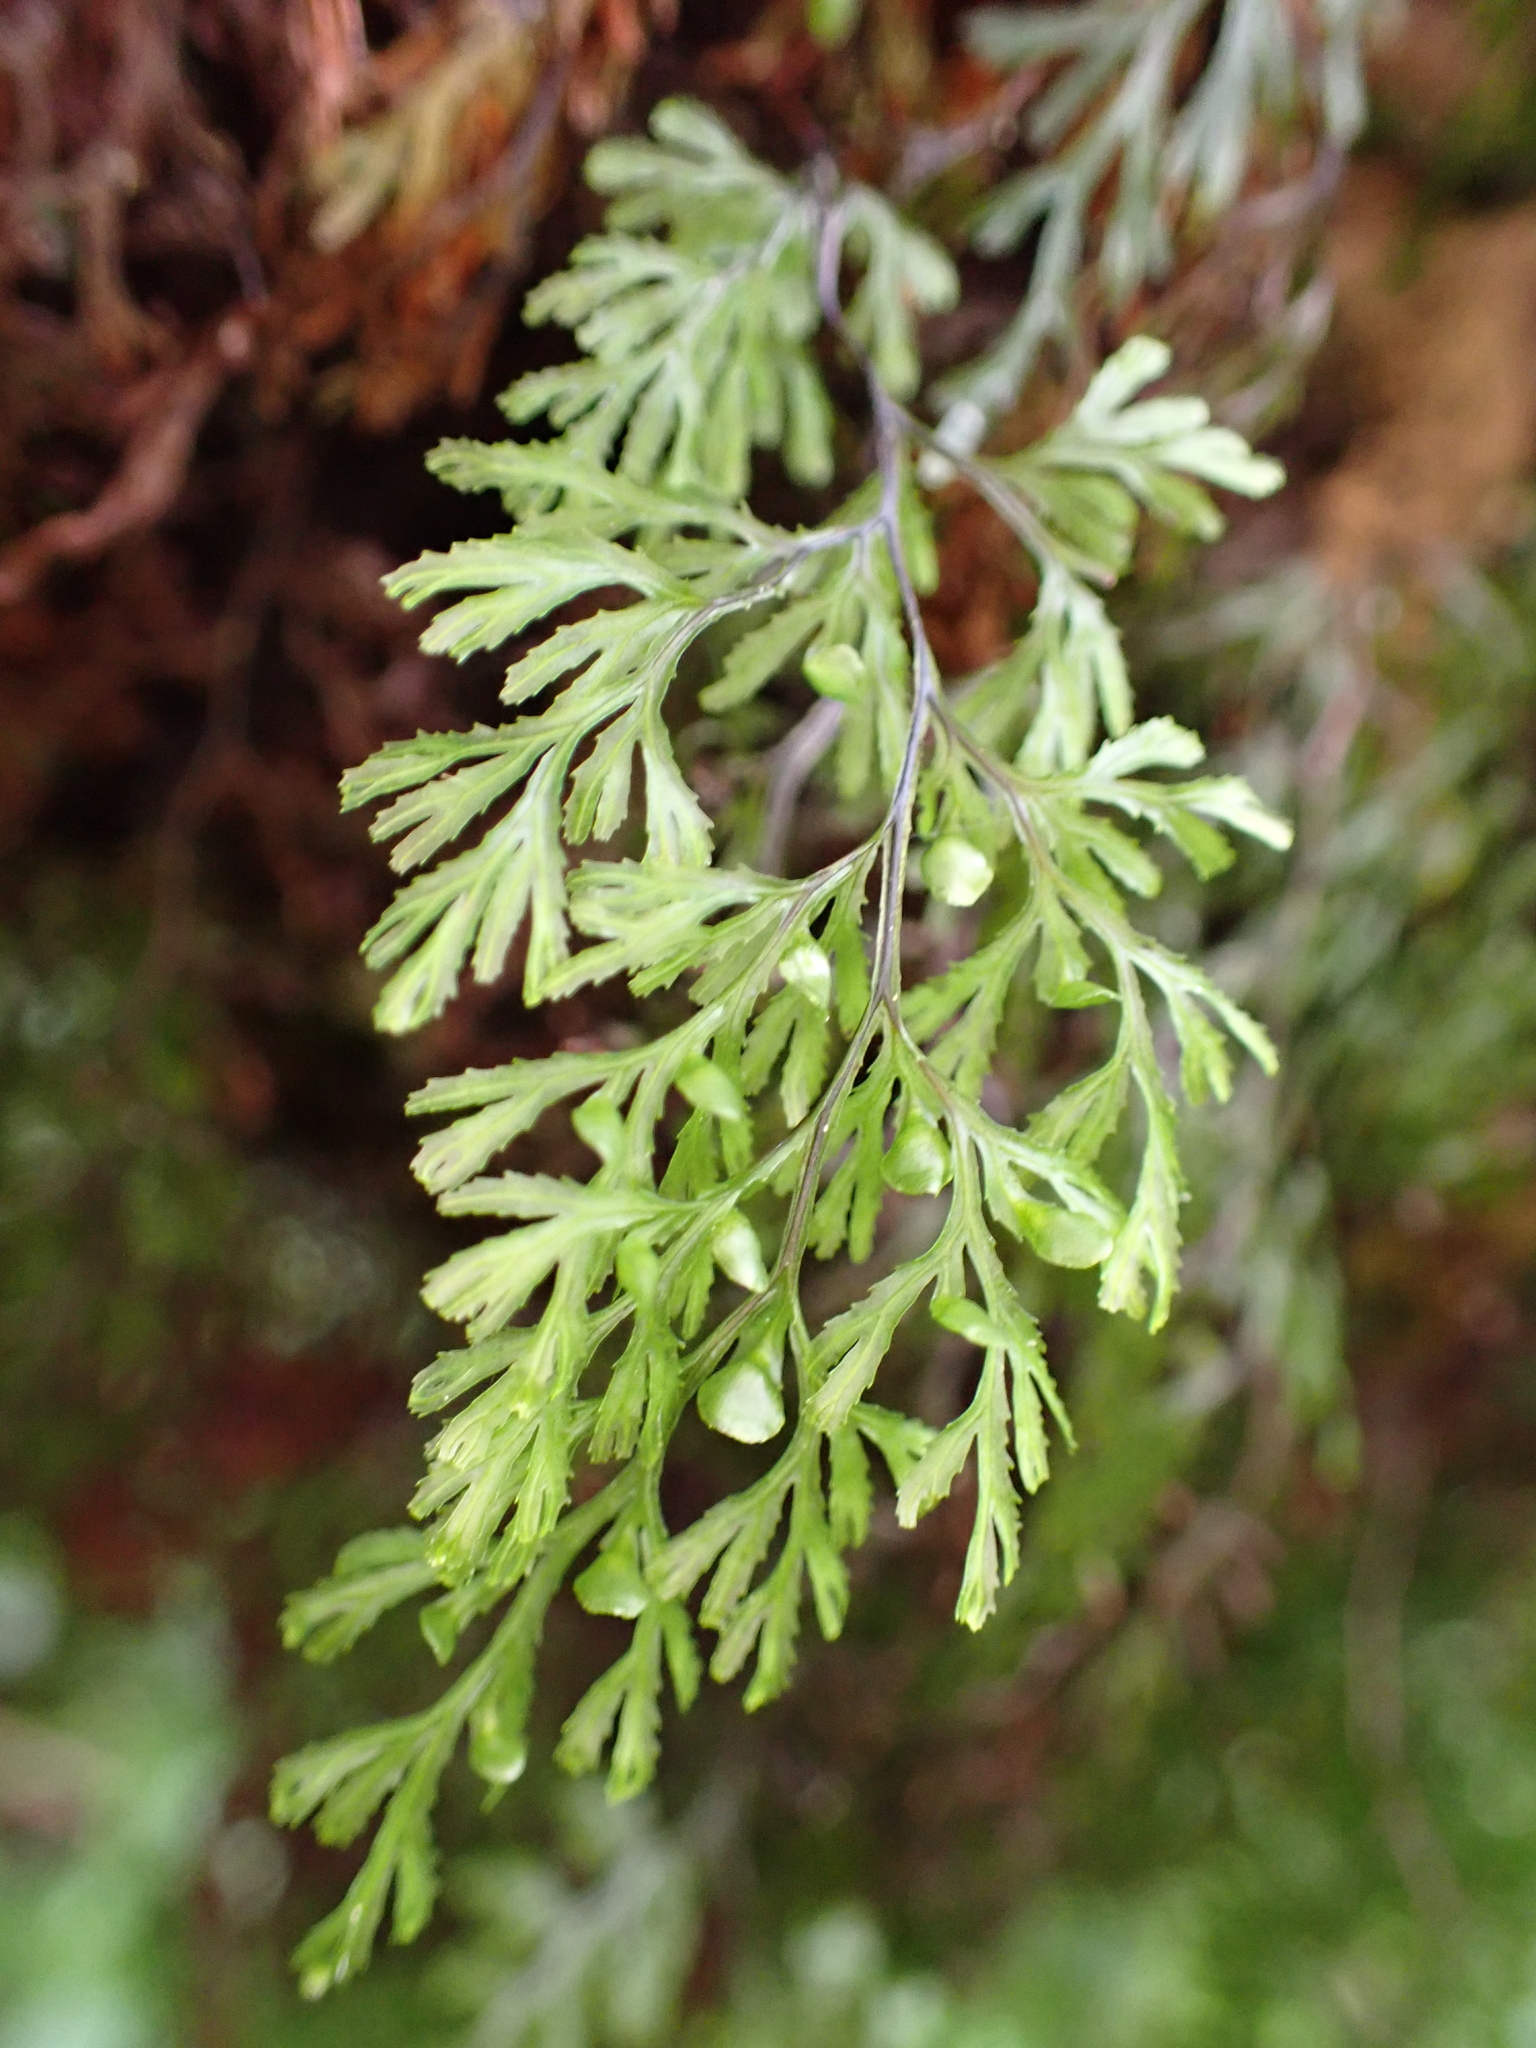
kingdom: Plantae
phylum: Tracheophyta
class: Polypodiopsida
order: Hymenophyllales
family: Hymenophyllaceae
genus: Hymenophyllum
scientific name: Hymenophyllum multifidum
